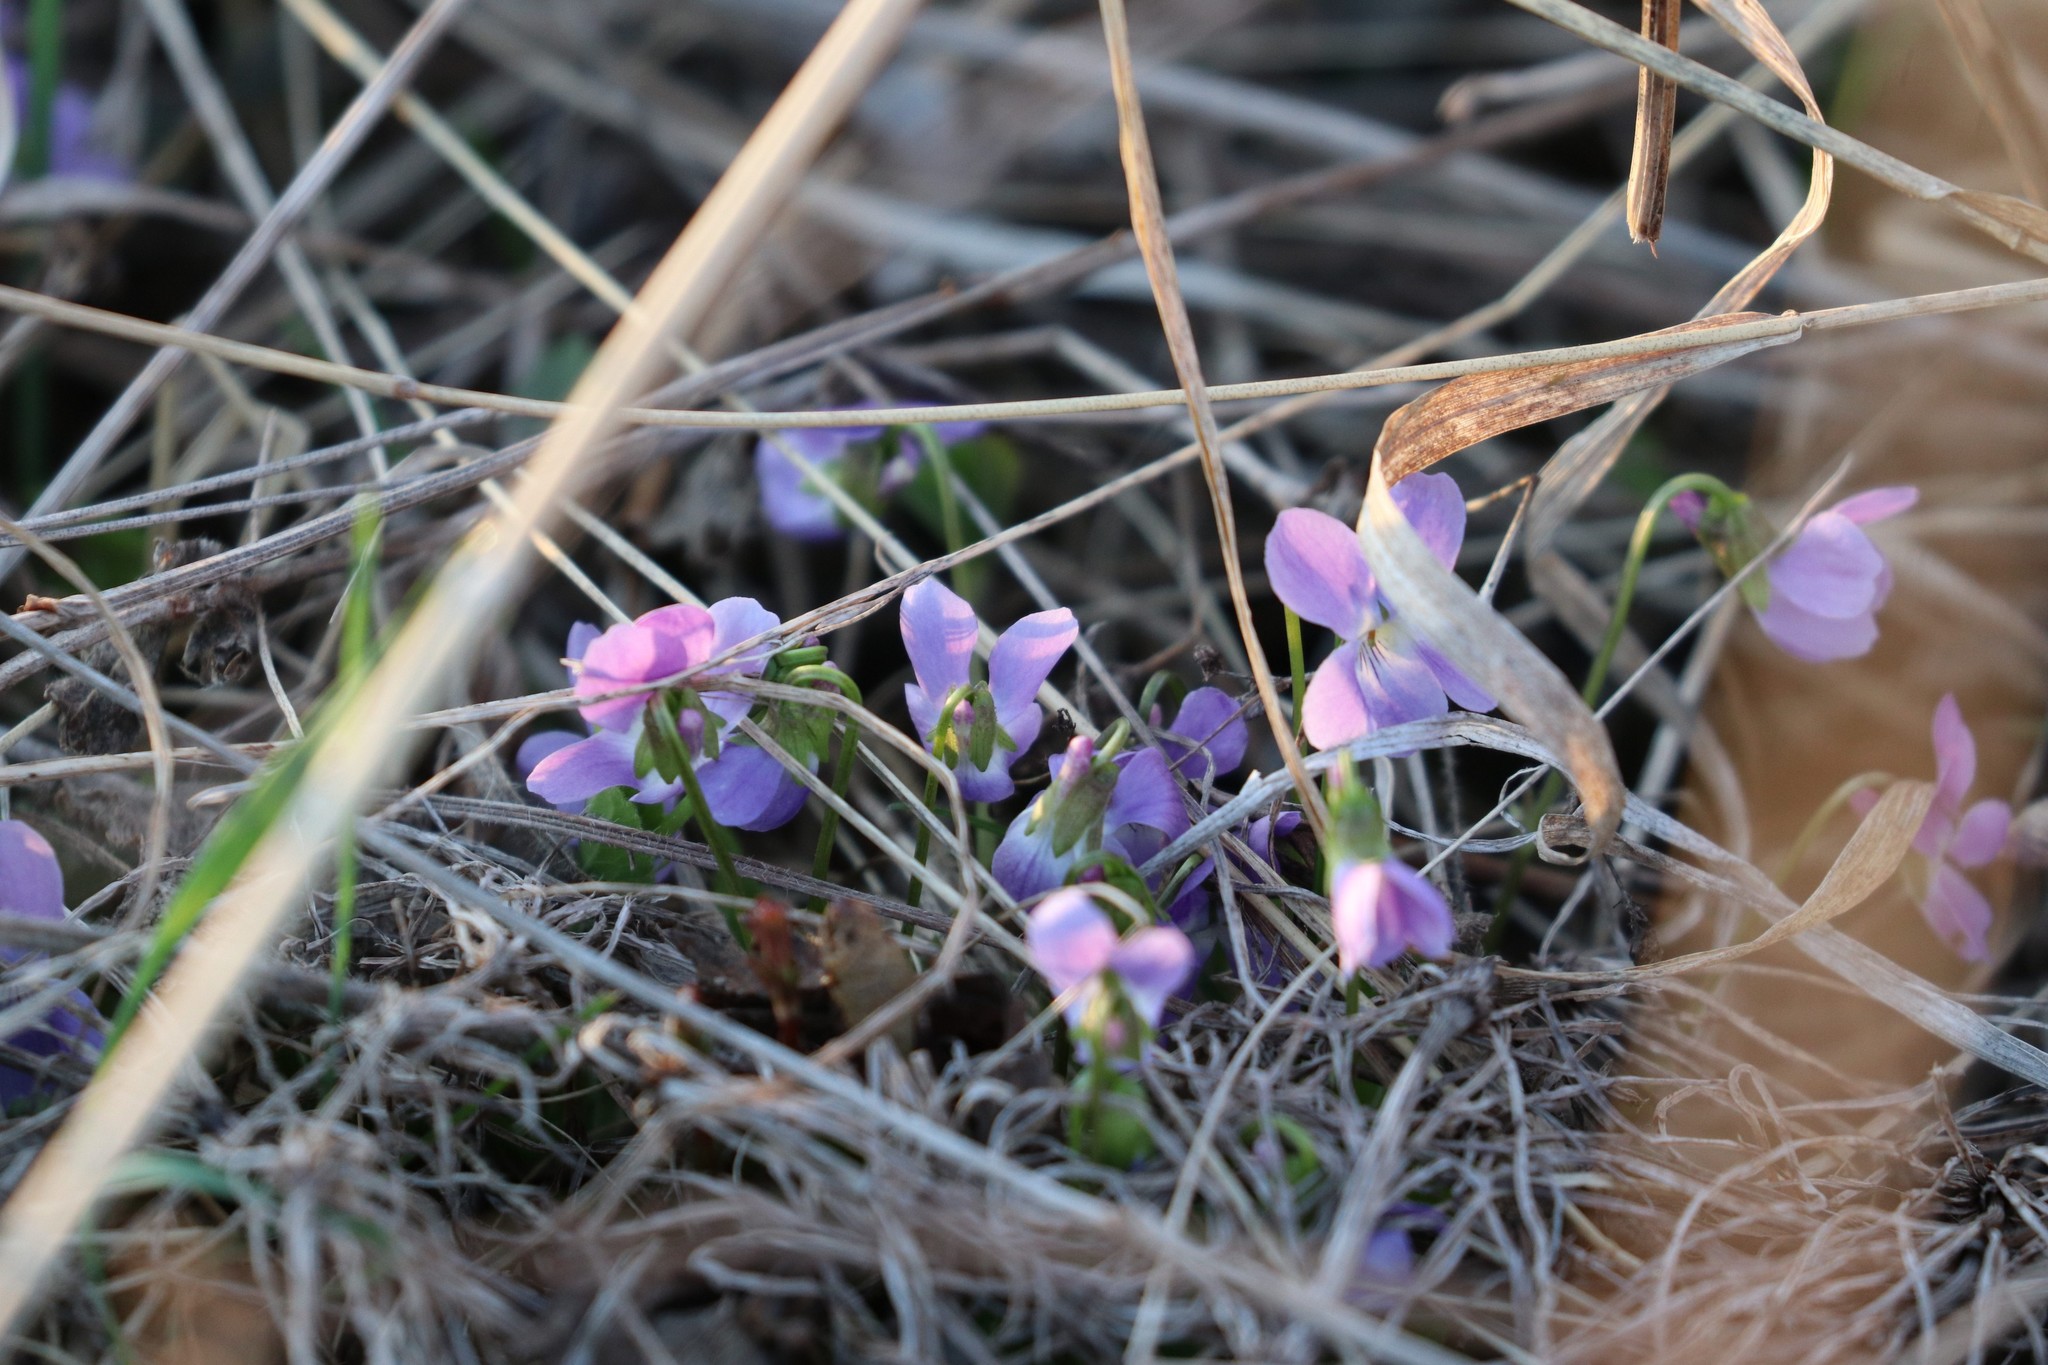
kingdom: Plantae
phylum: Tracheophyta
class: Magnoliopsida
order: Malpighiales
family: Violaceae
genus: Viola
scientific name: Viola hirta
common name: Hairy violet
